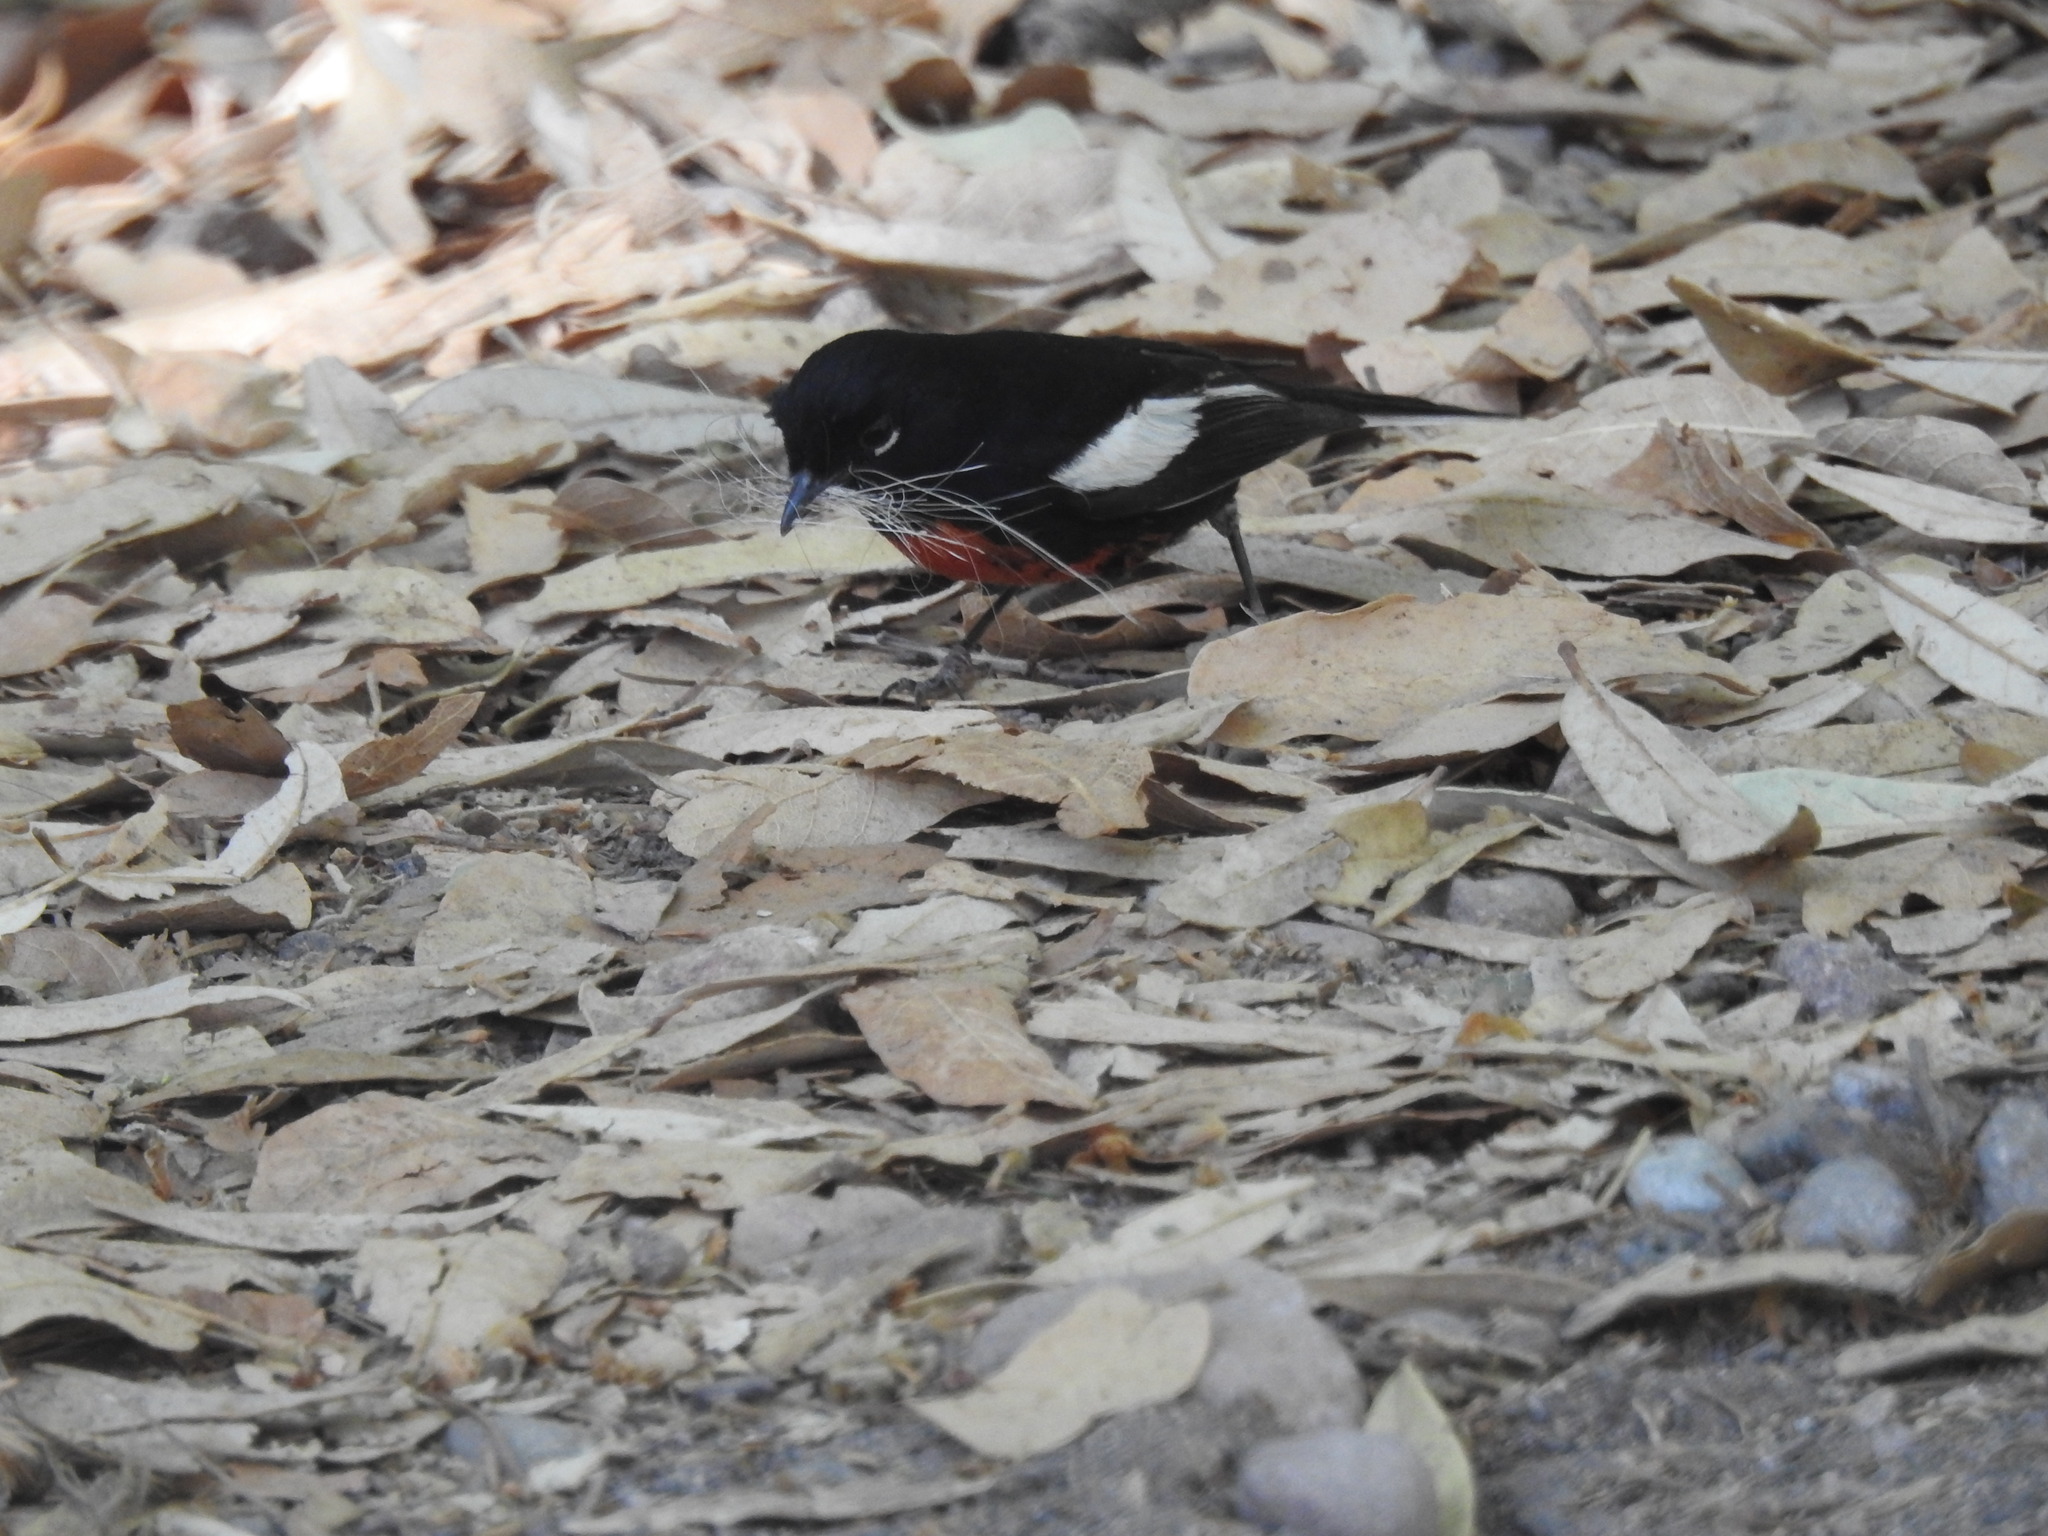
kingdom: Animalia
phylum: Chordata
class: Aves
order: Passeriformes
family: Parulidae
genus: Myioborus
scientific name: Myioborus pictus
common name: Painted whitestart
